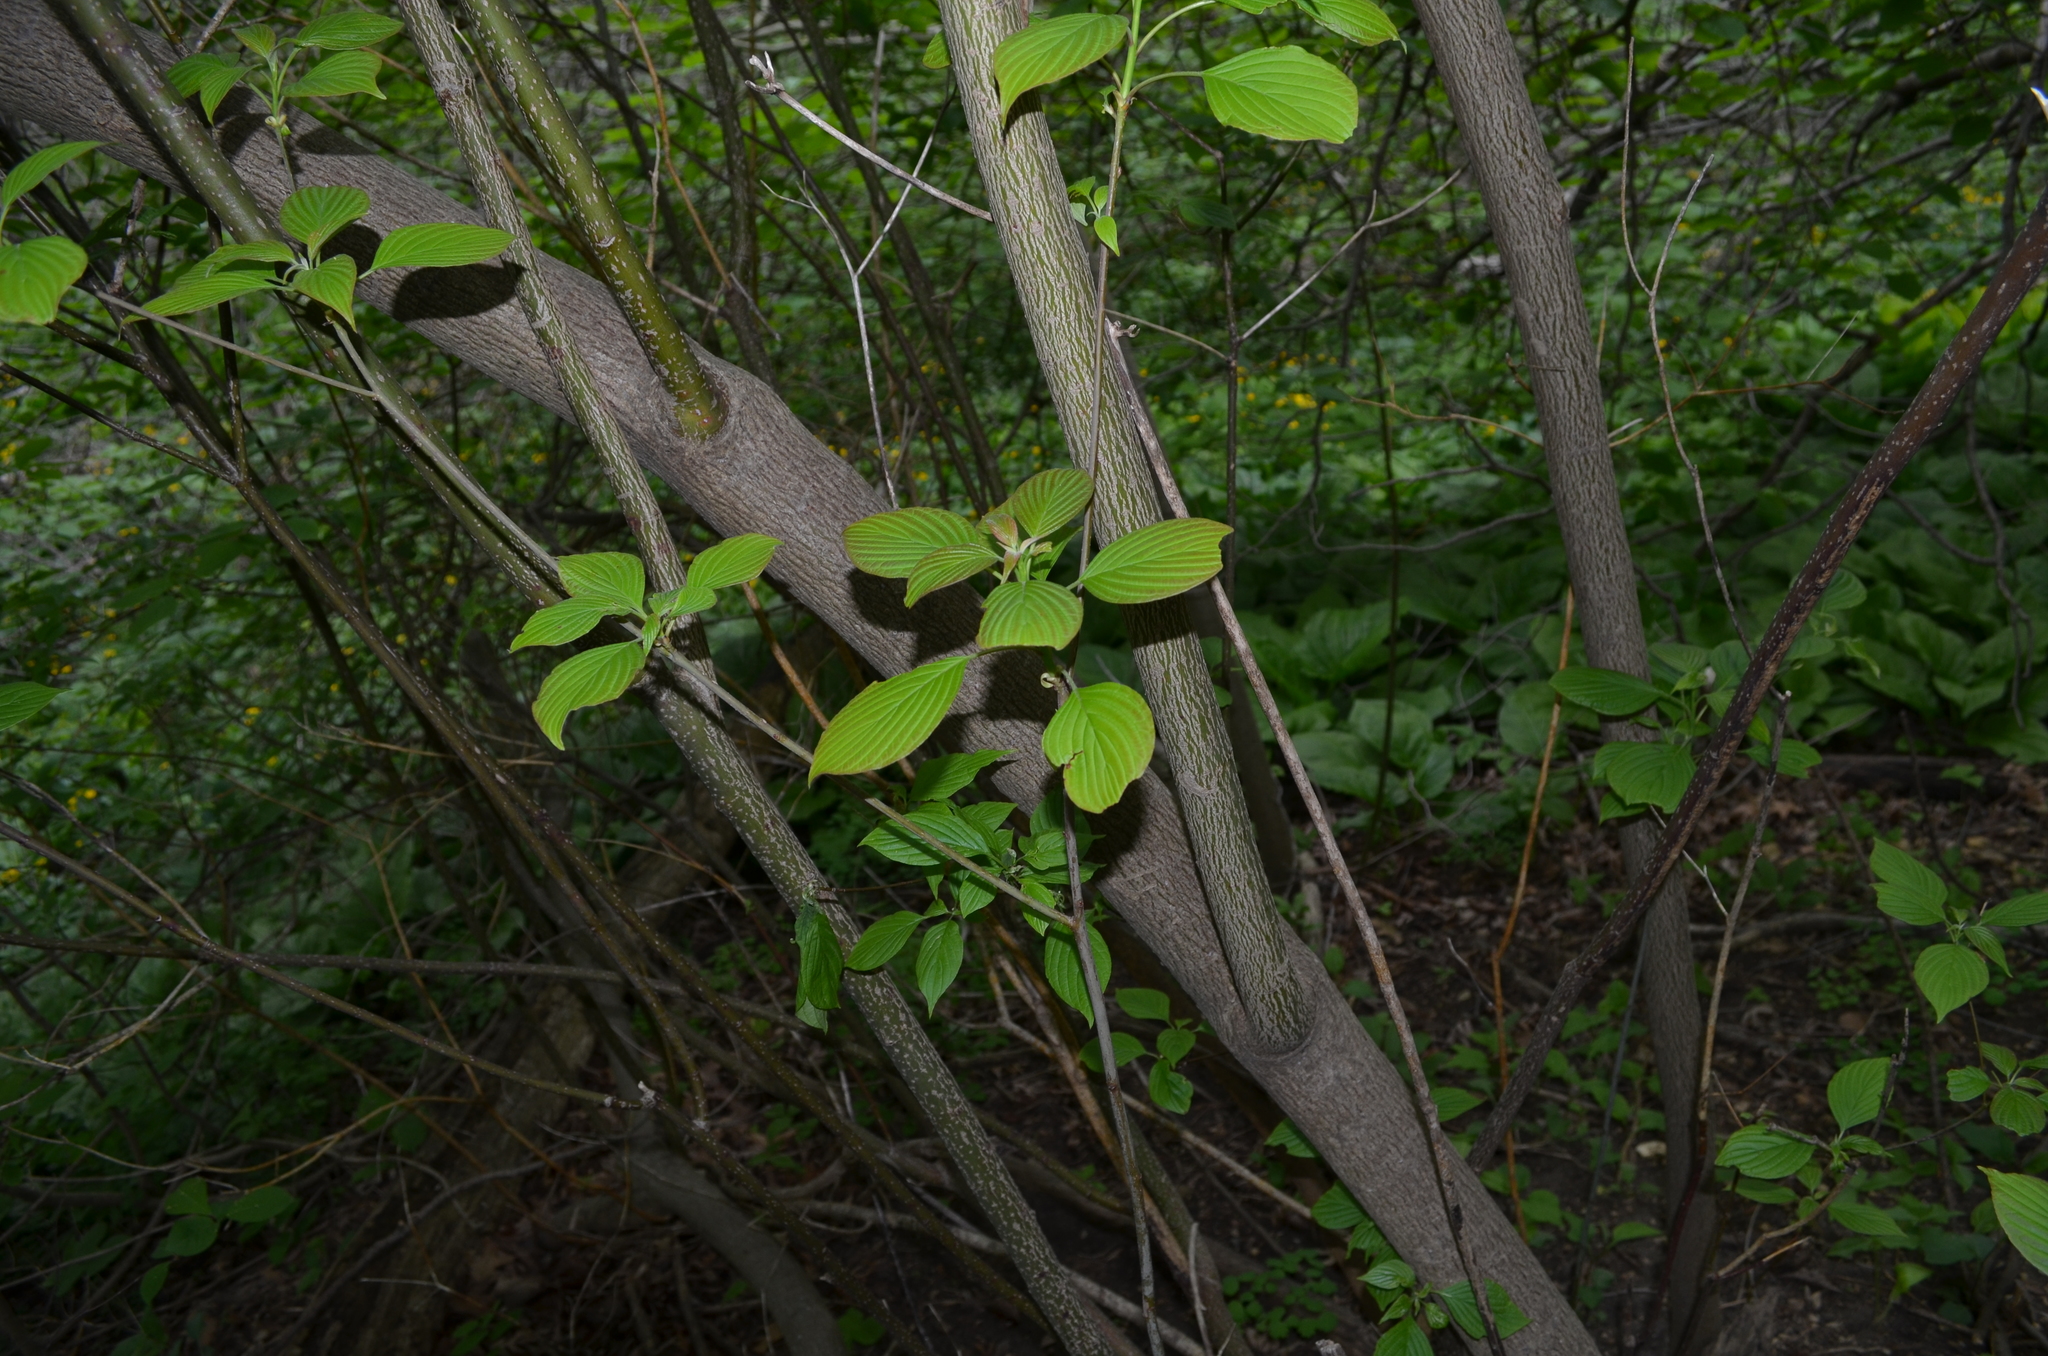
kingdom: Plantae
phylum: Tracheophyta
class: Magnoliopsida
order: Cornales
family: Cornaceae
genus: Cornus
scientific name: Cornus alternifolia
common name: Pagoda dogwood
